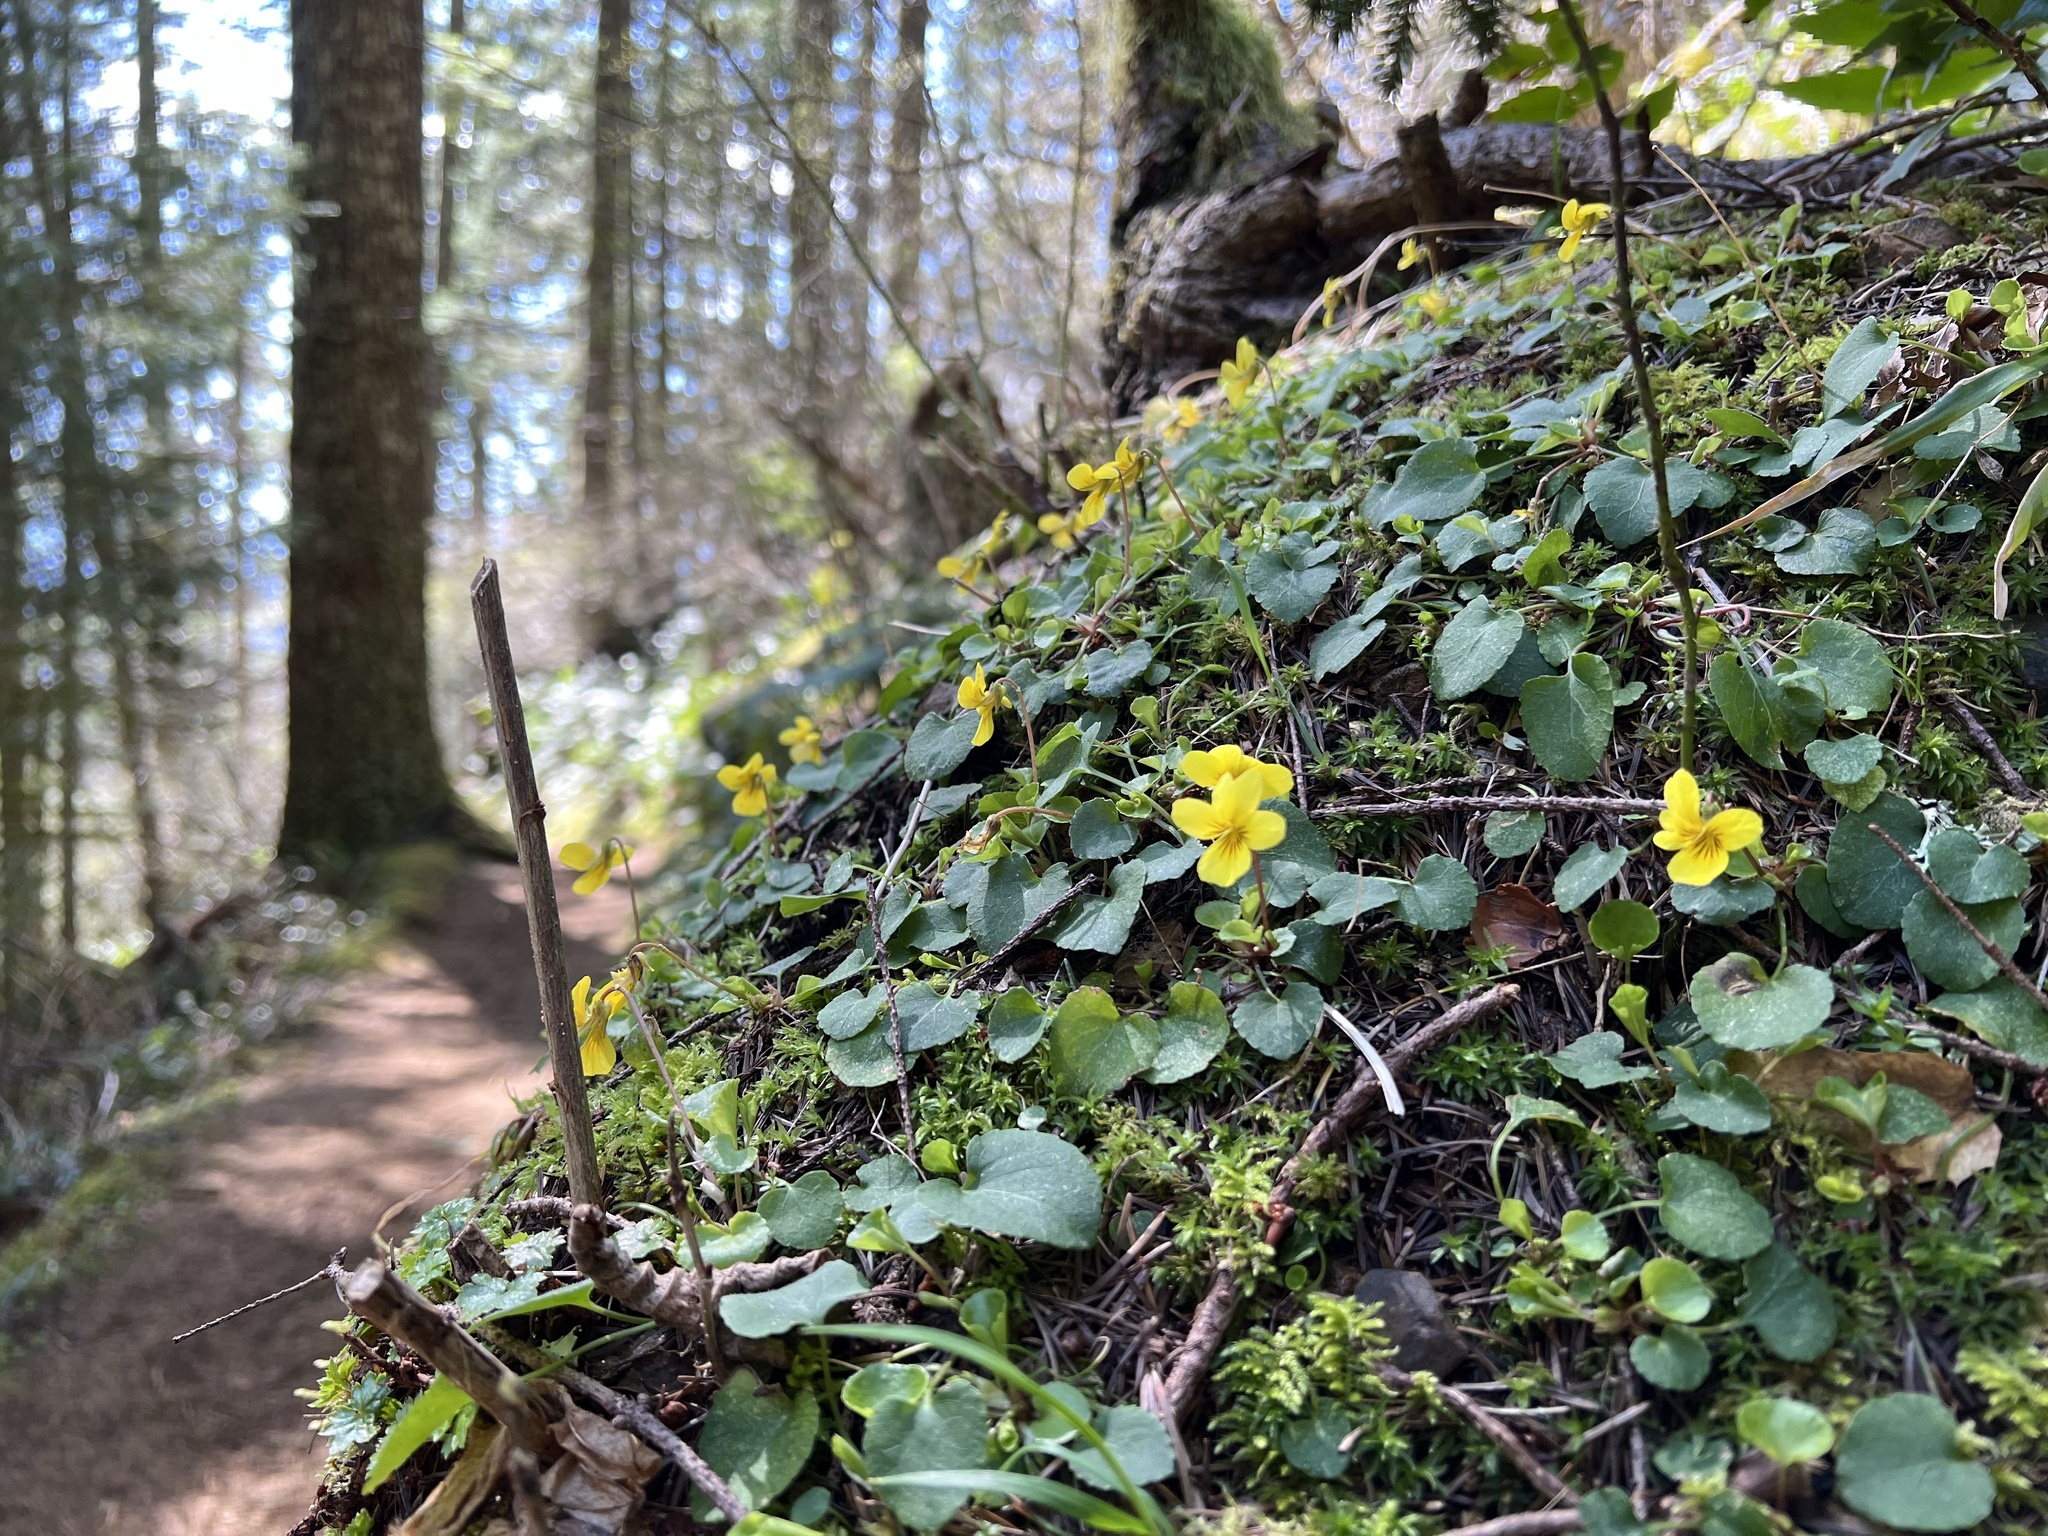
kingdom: Plantae
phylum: Tracheophyta
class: Magnoliopsida
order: Malpighiales
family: Violaceae
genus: Viola
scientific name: Viola sempervirens
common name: Evergreen violet
